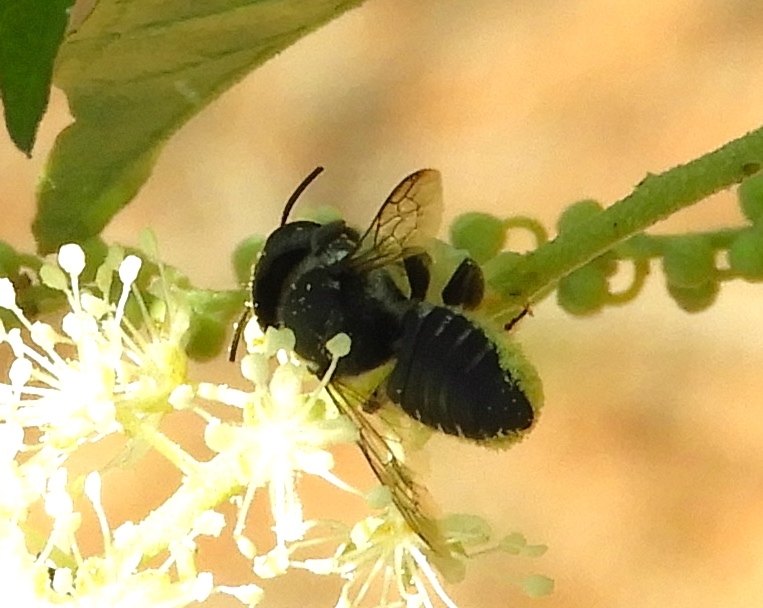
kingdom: Animalia
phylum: Arthropoda
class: Insecta
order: Hymenoptera
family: Megachilidae
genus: Megachile
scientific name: Megachile
